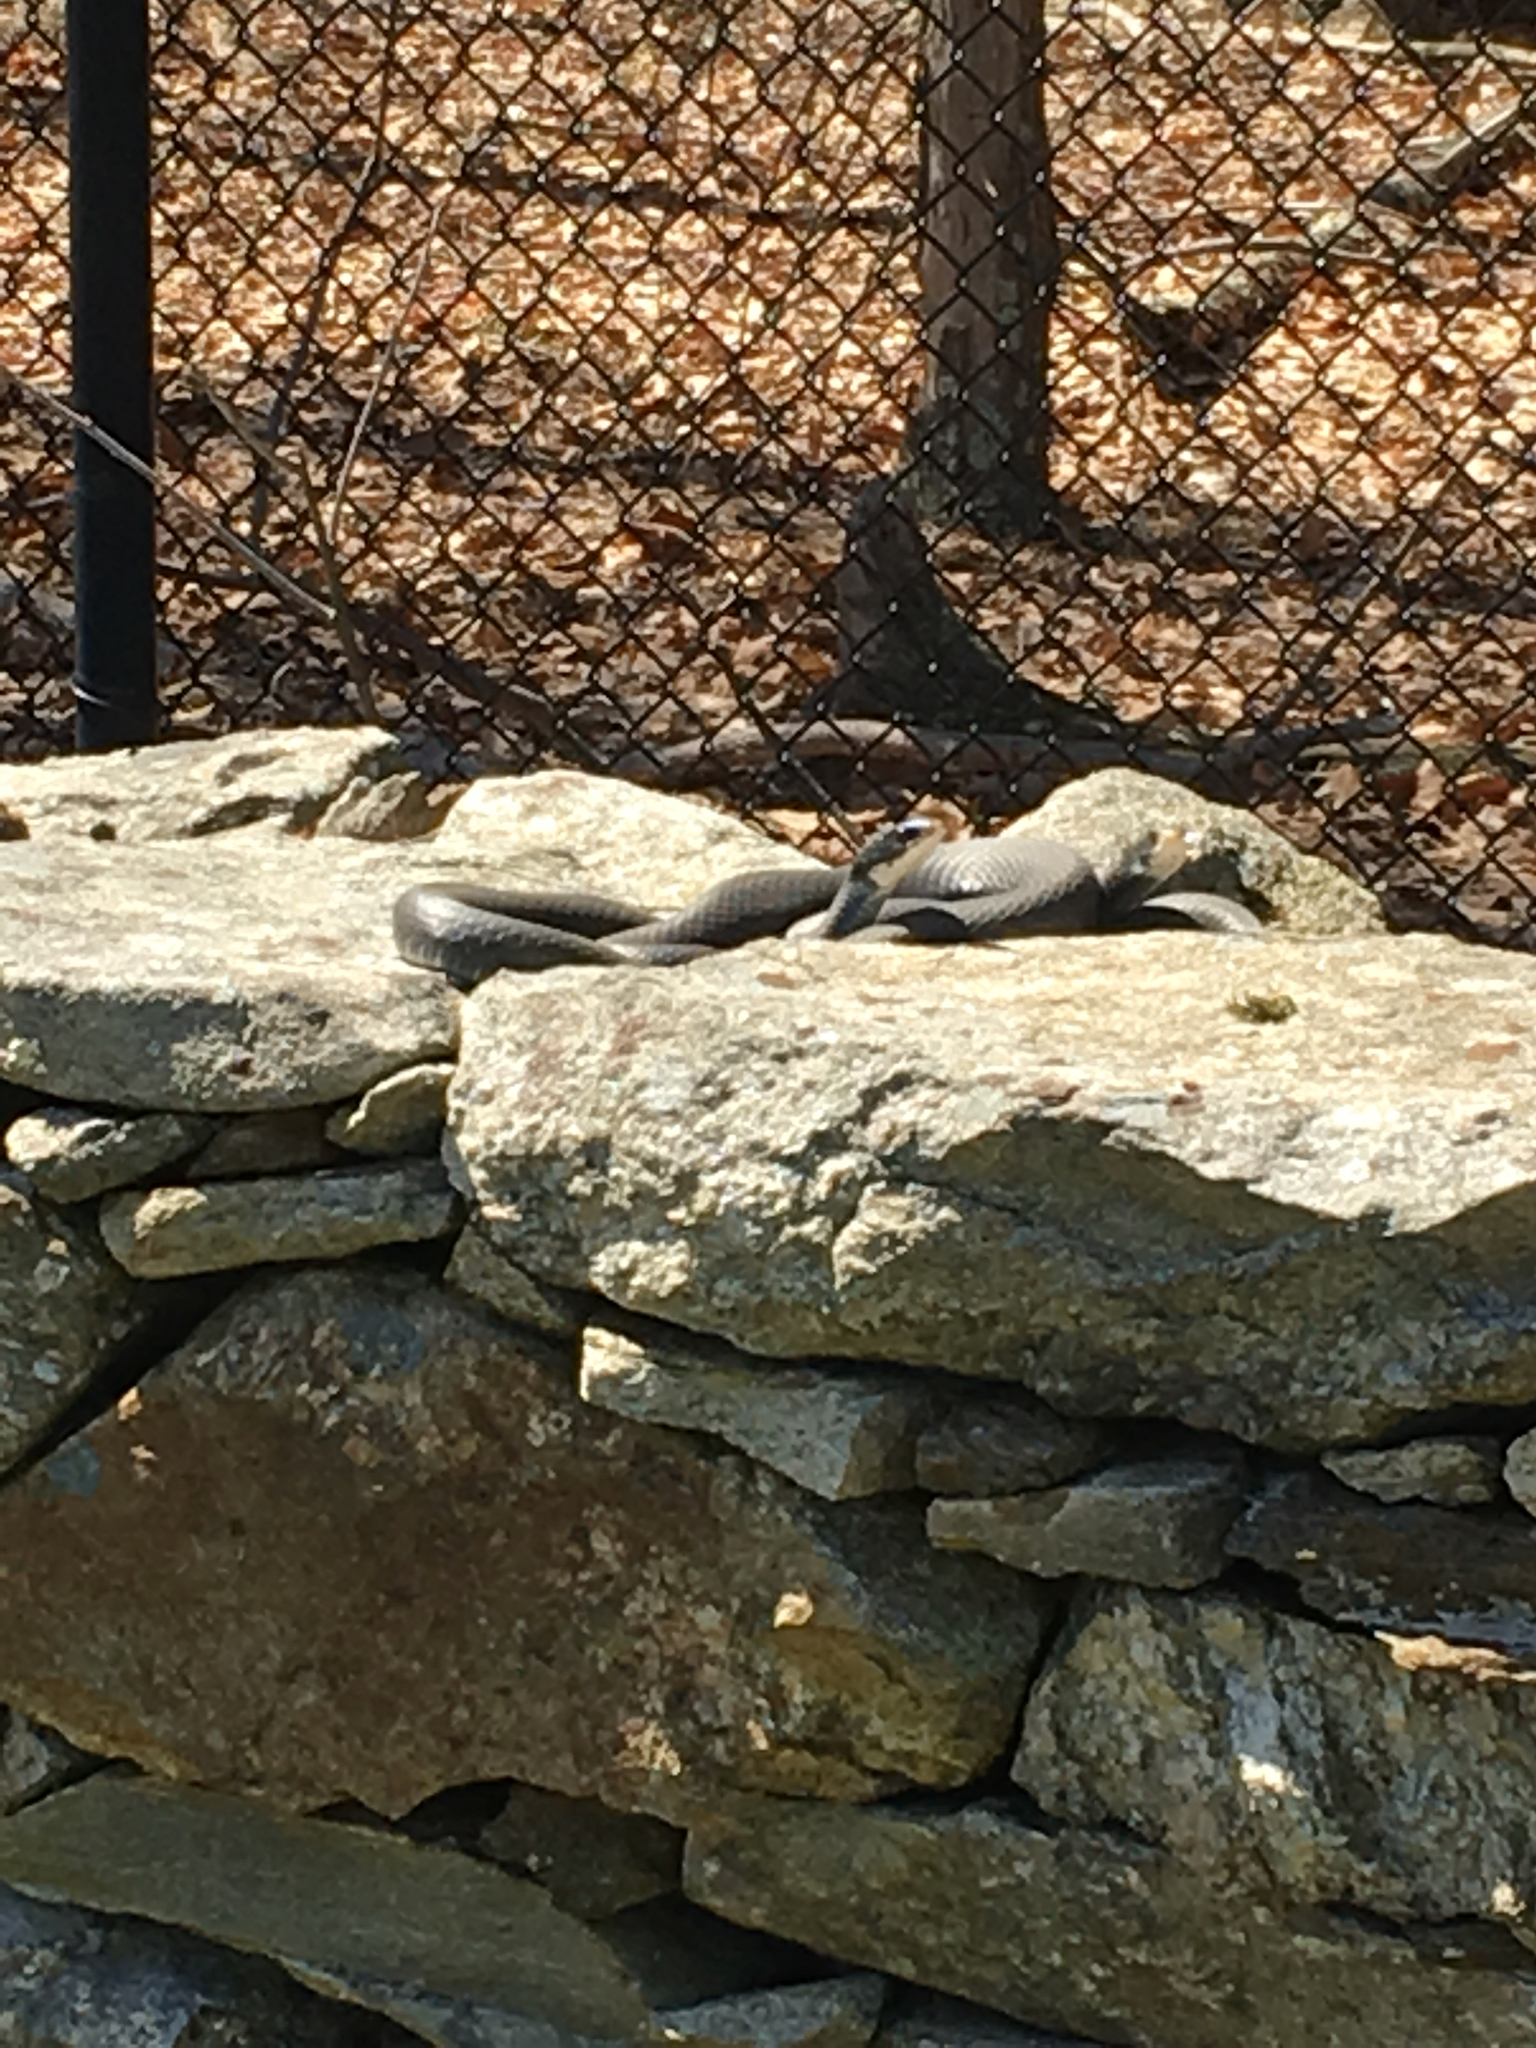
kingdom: Animalia
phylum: Chordata
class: Squamata
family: Colubridae
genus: Coluber
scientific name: Coluber constrictor
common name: Eastern racer
